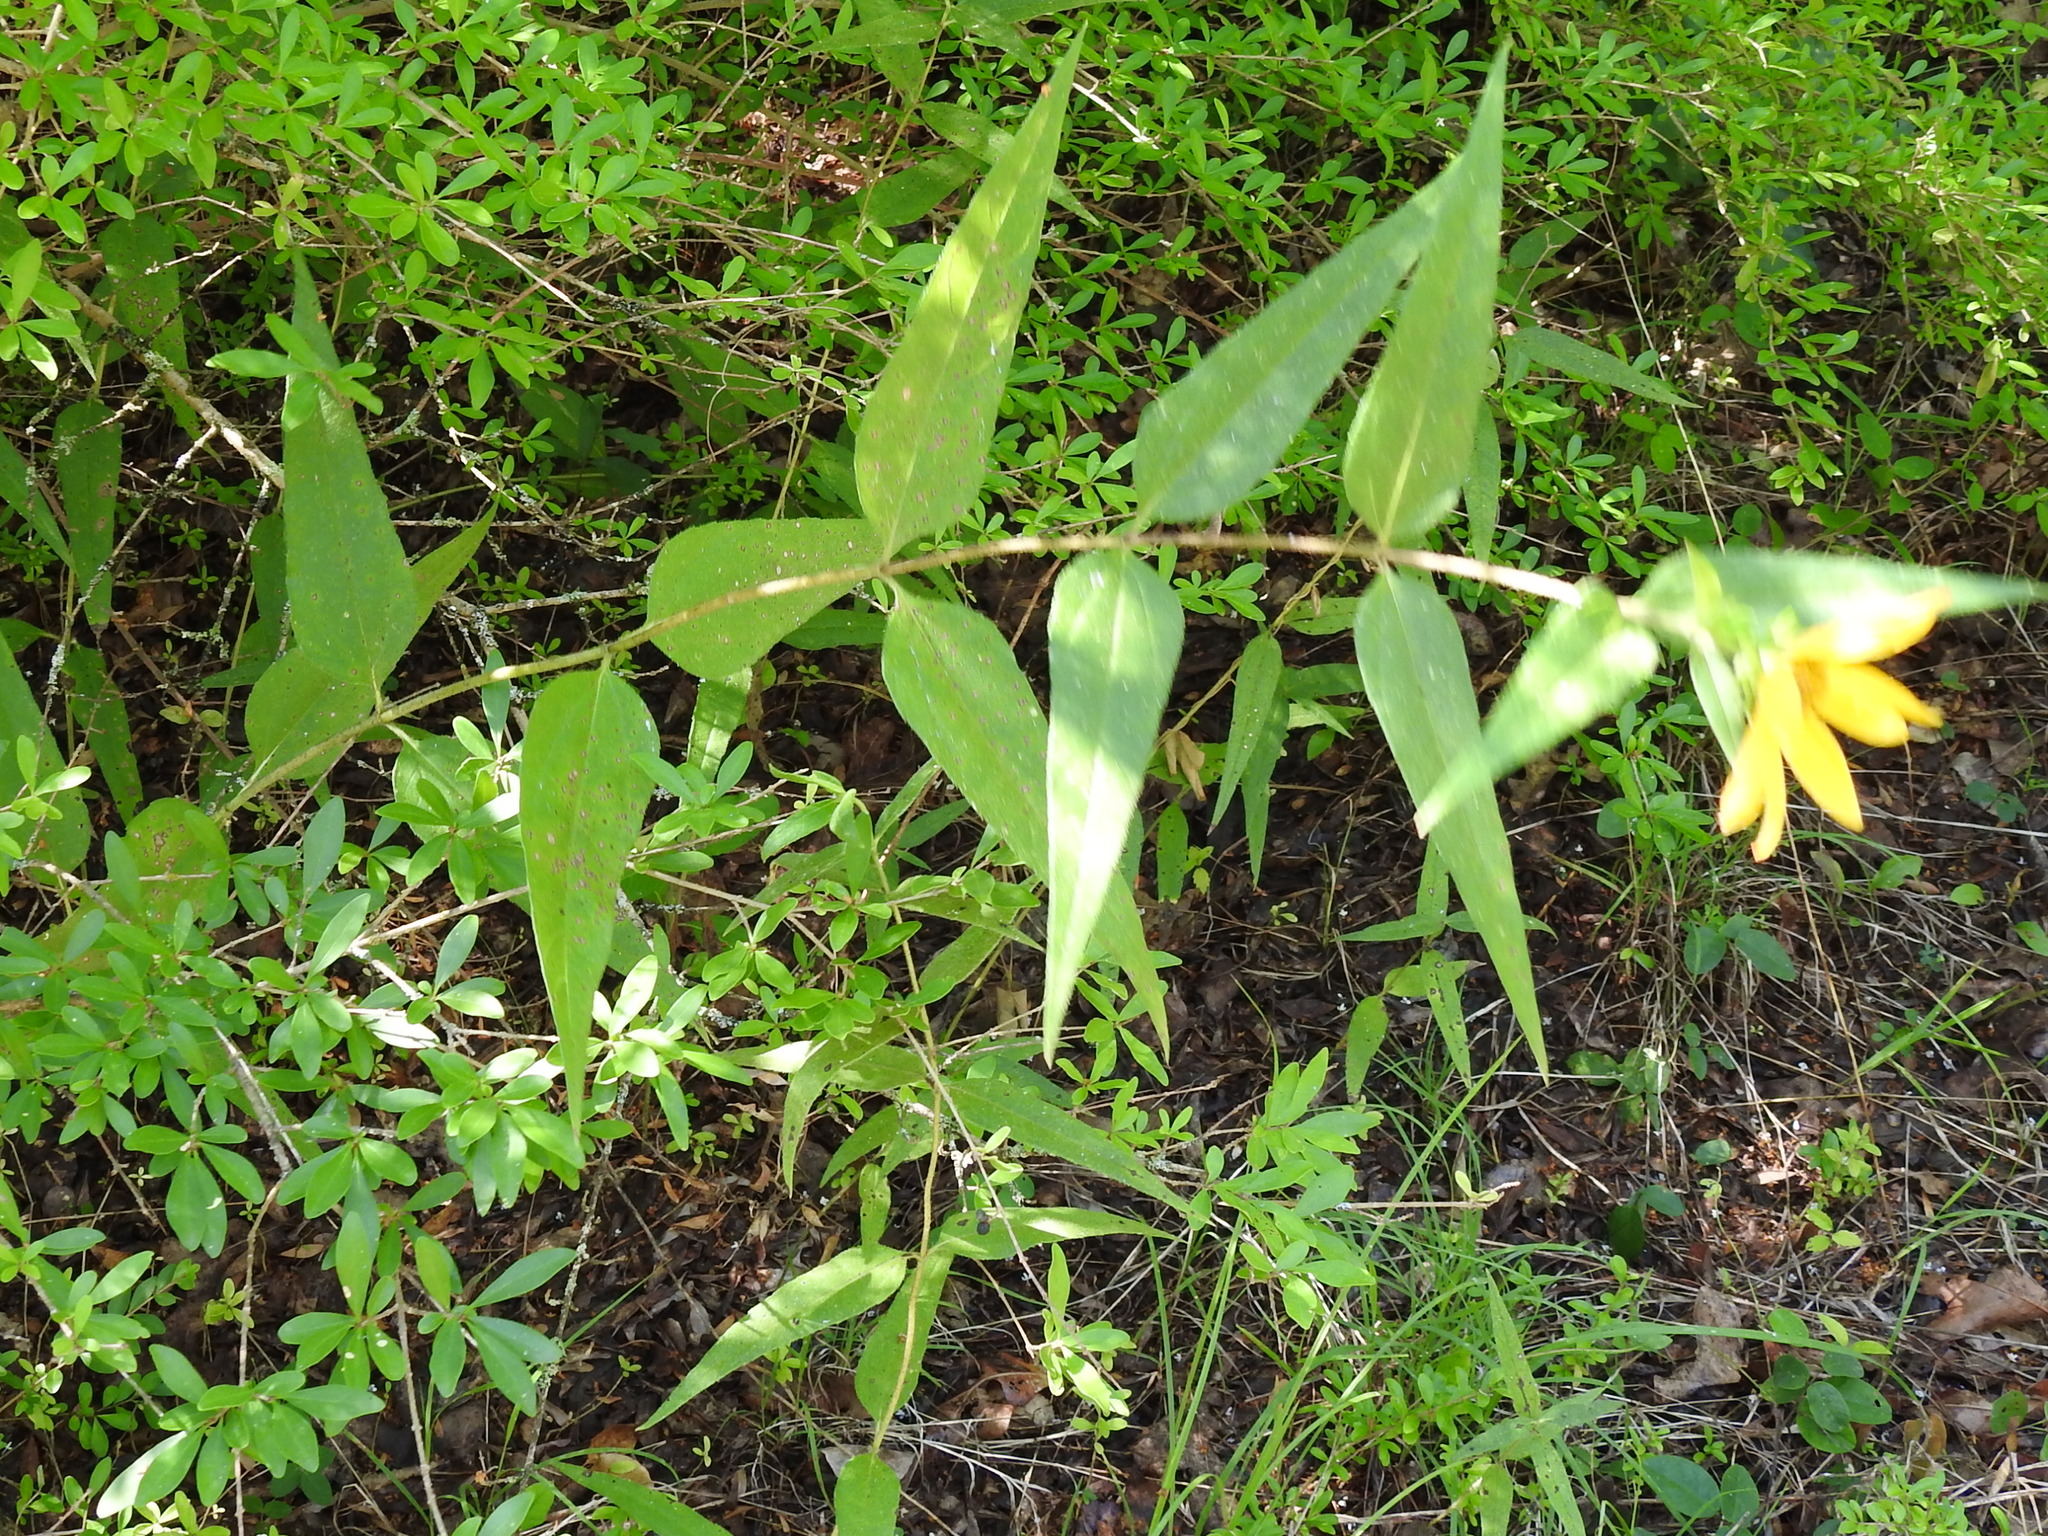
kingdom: Plantae
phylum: Tracheophyta
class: Magnoliopsida
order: Asterales
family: Asteraceae
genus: Helianthus
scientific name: Helianthus hirsutus
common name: Hairy sunflower
